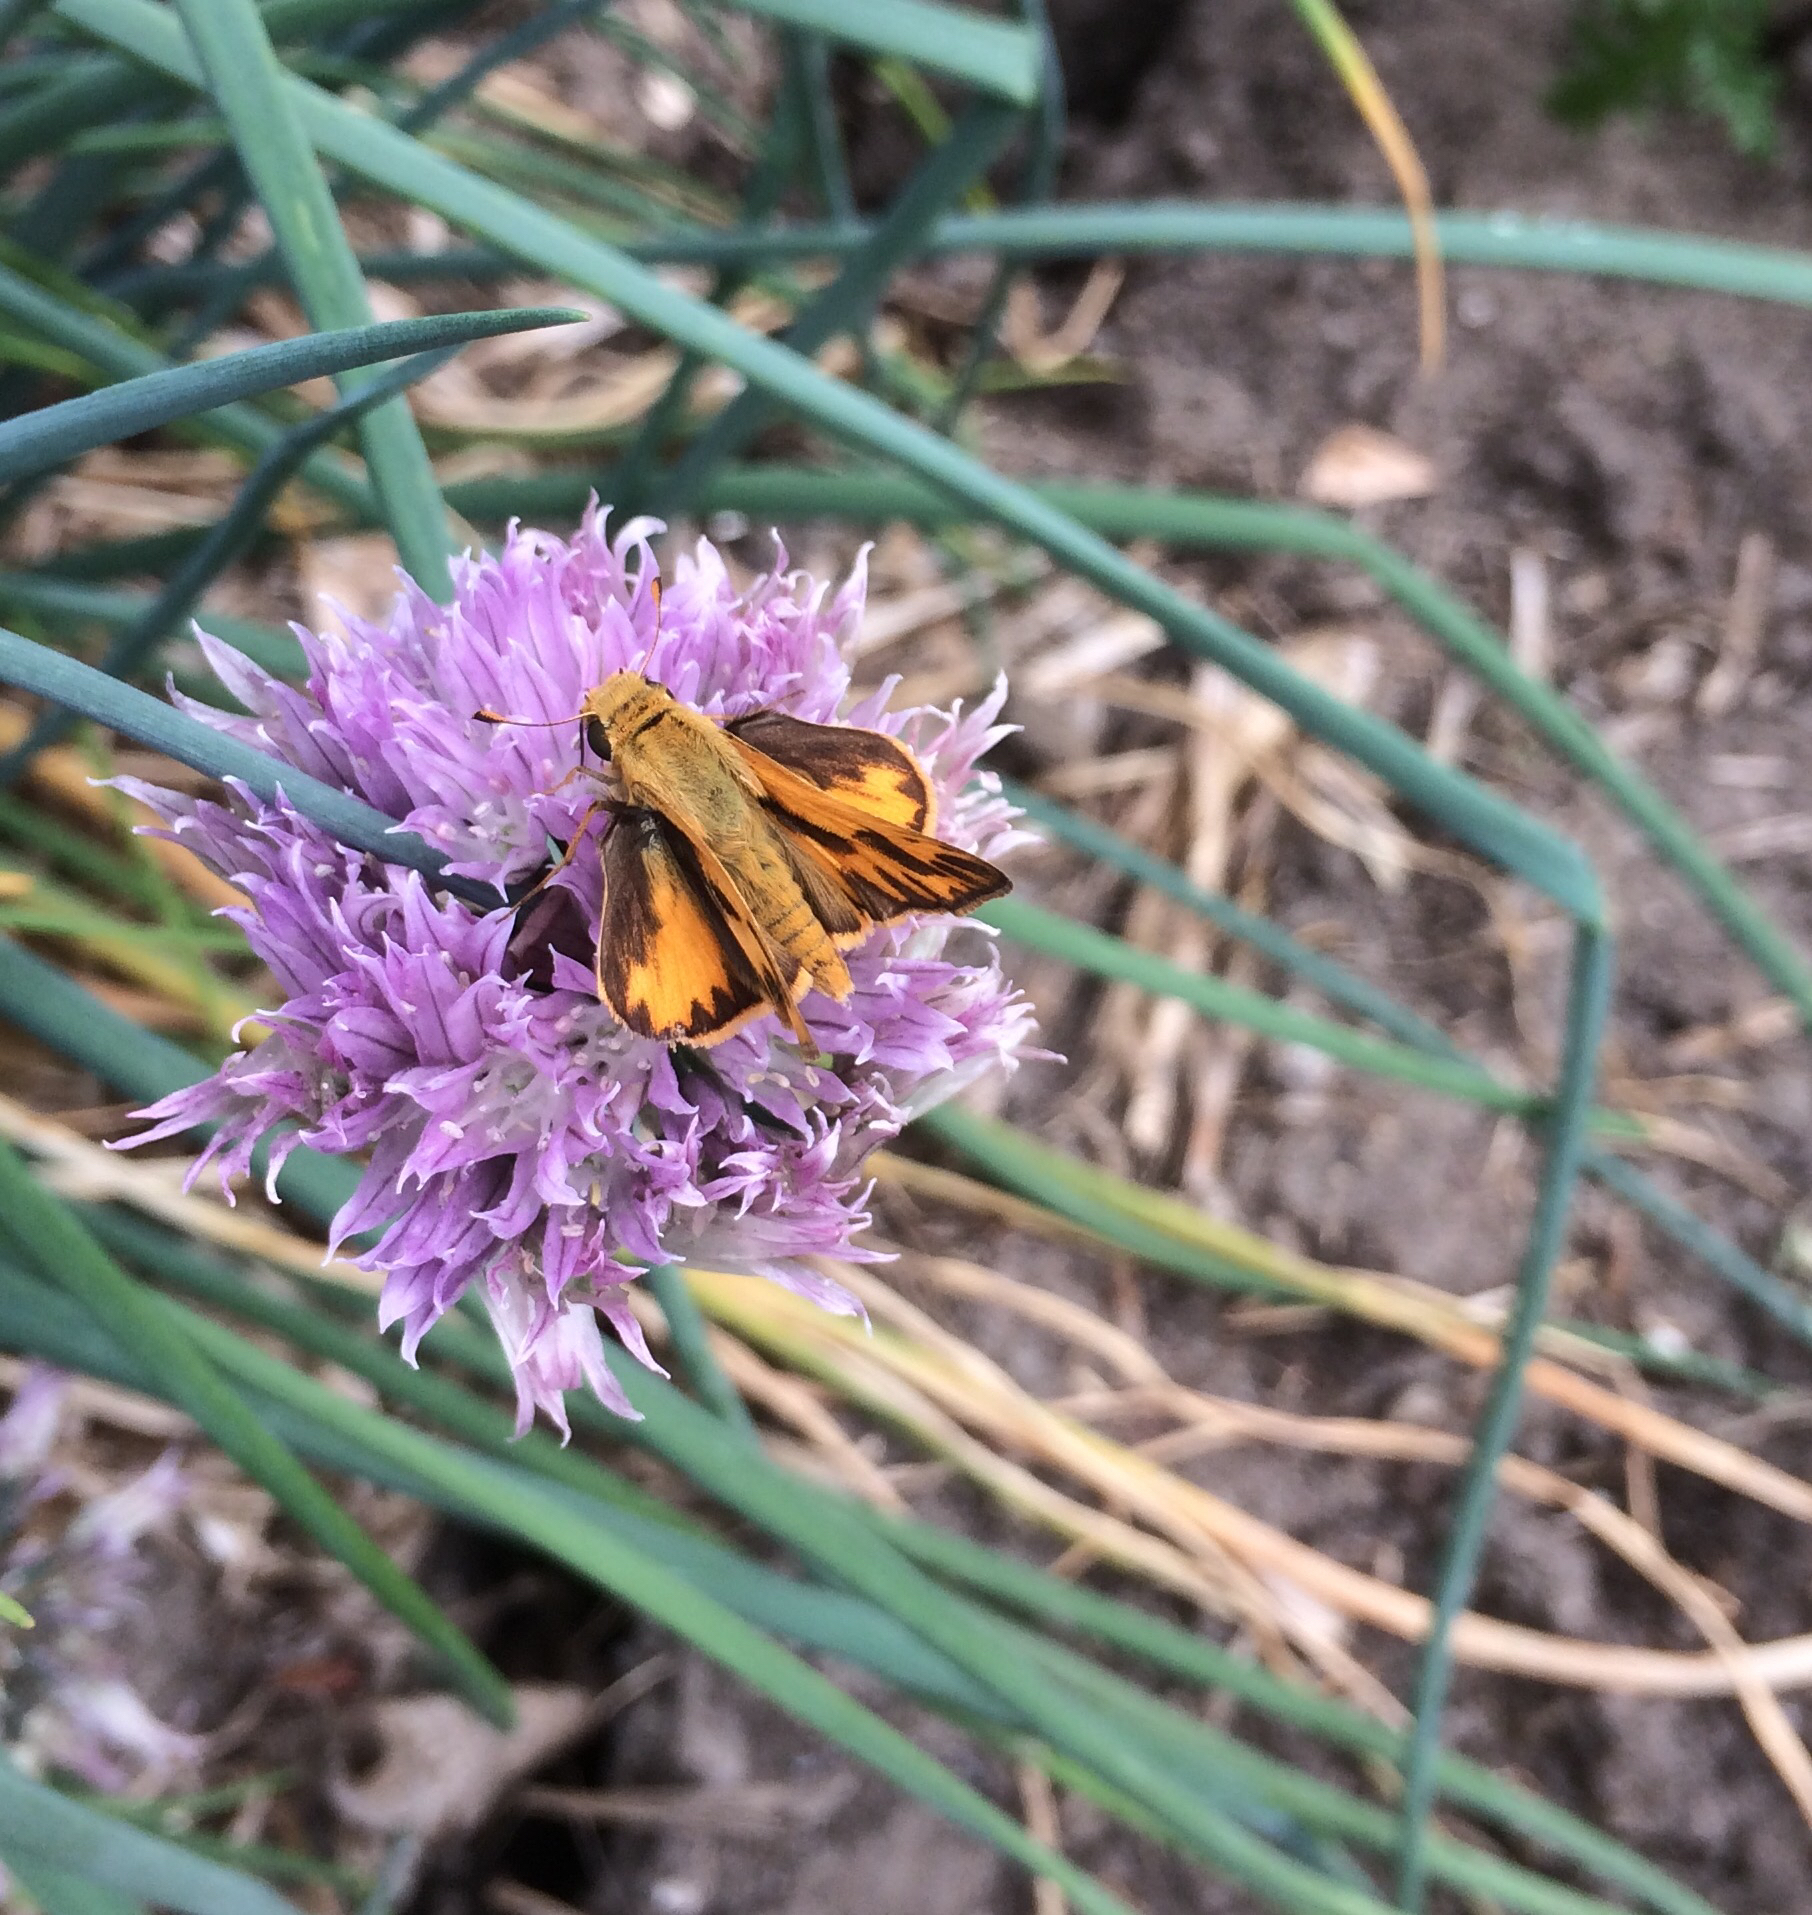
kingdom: Animalia
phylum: Arthropoda
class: Insecta
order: Lepidoptera
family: Hesperiidae
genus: Hylephila
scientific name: Hylephila phyleus
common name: Fiery skipper
